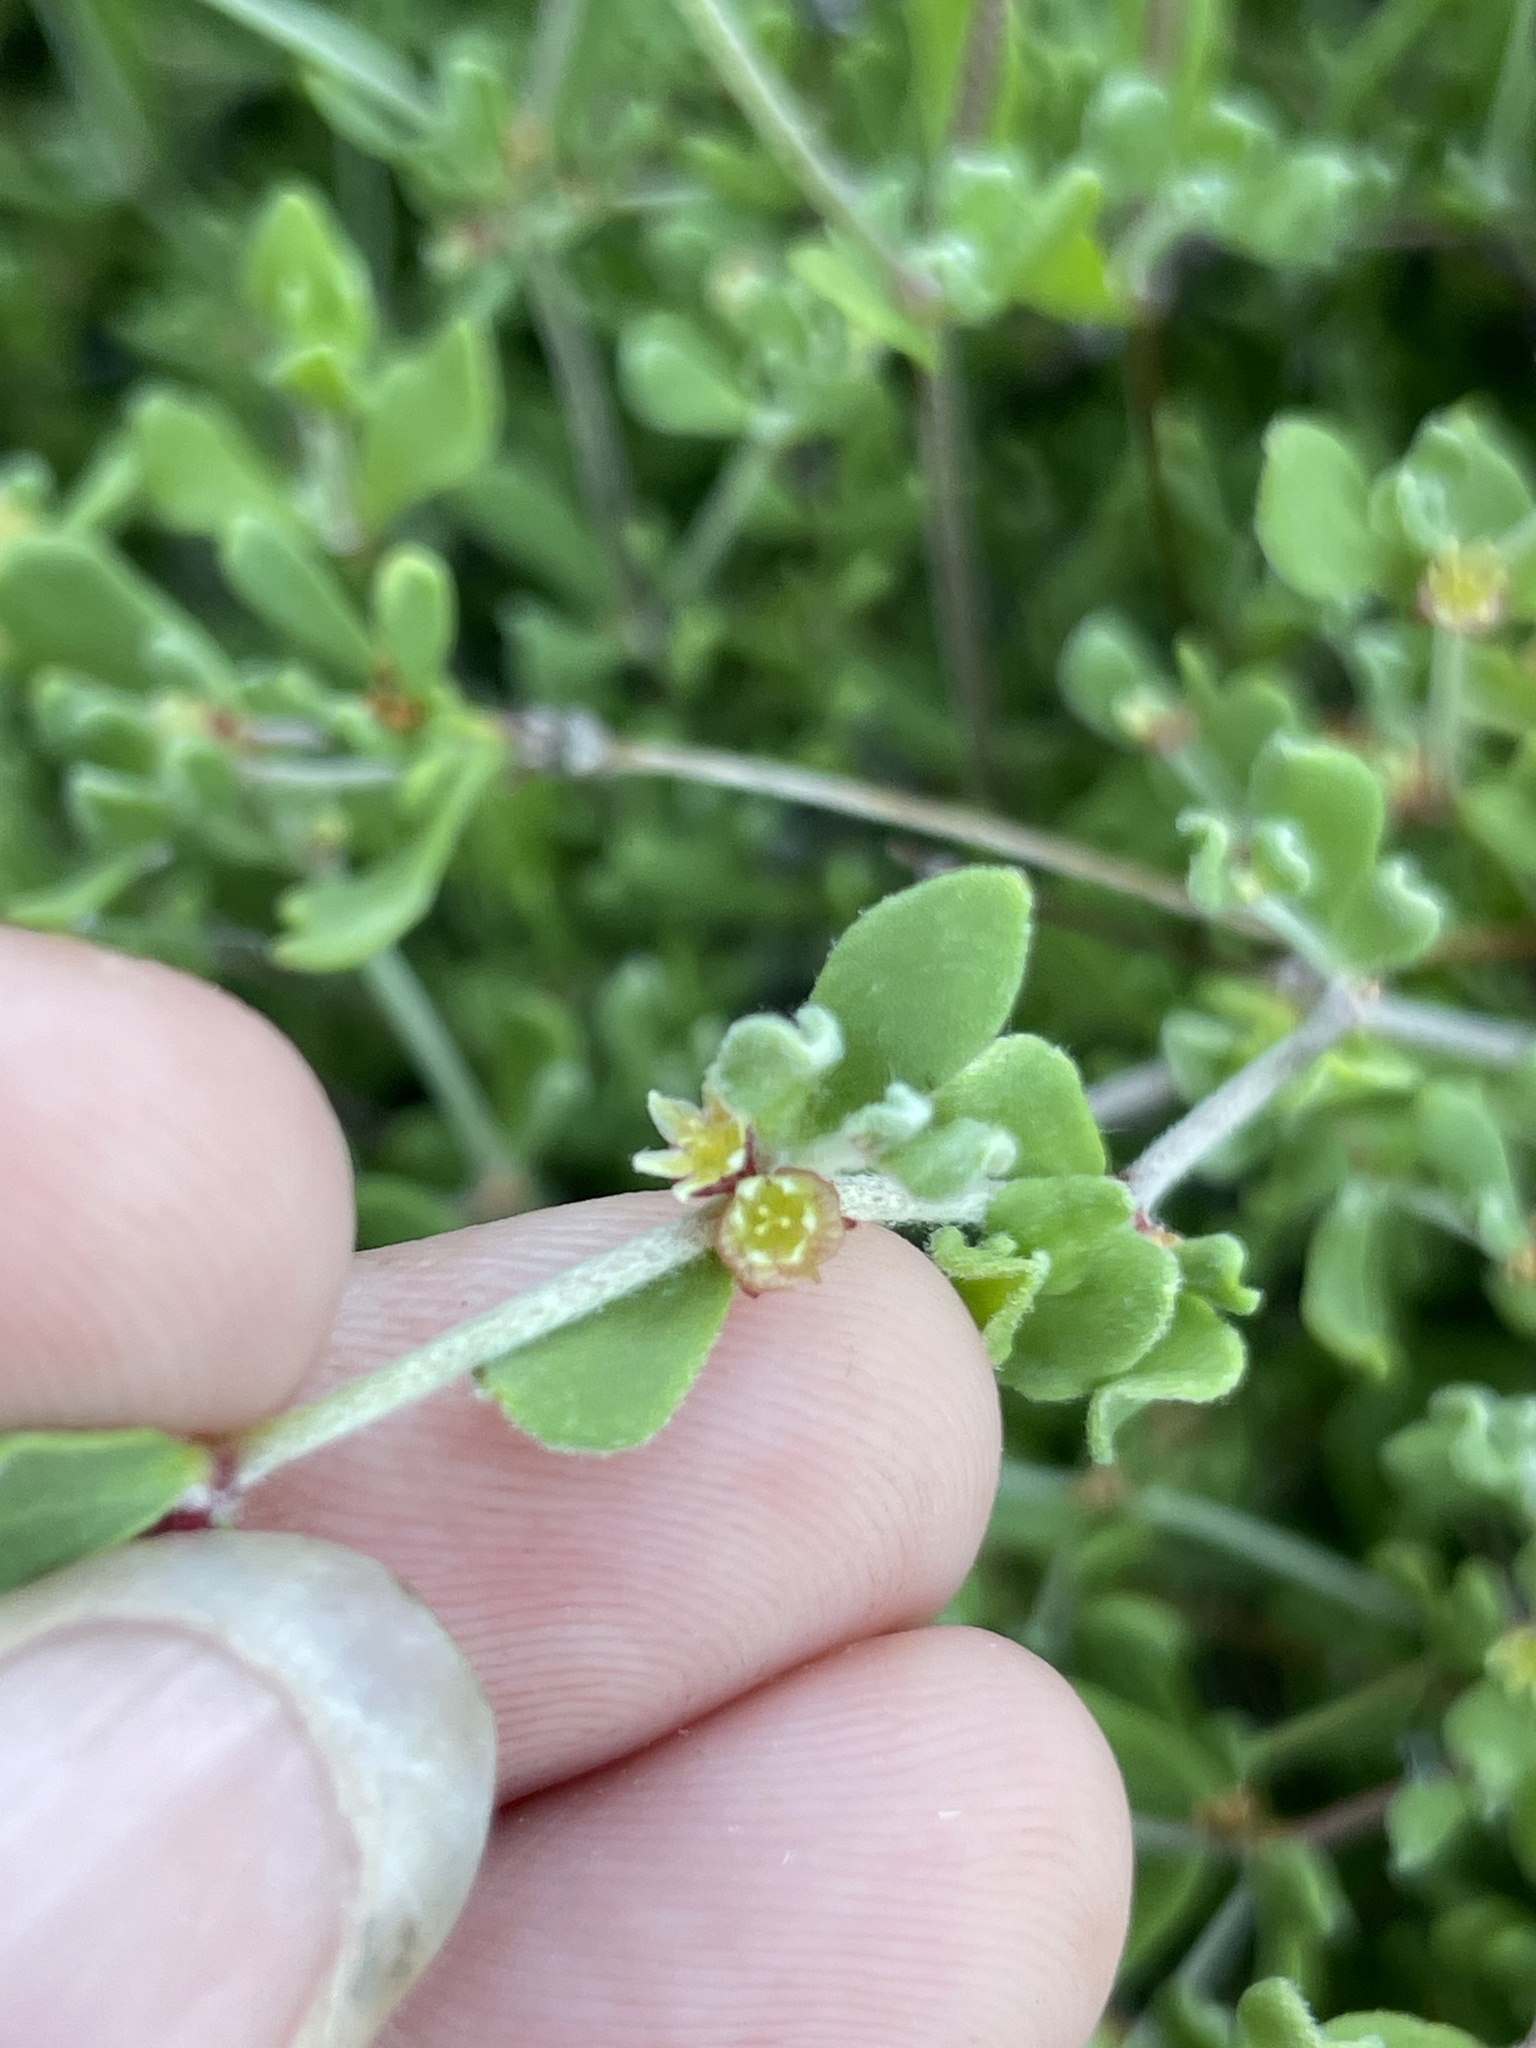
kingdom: Plantae
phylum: Tracheophyta
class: Magnoliopsida
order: Caryophyllales
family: Polygonaceae
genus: Harfordia
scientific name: Harfordia macroptera
